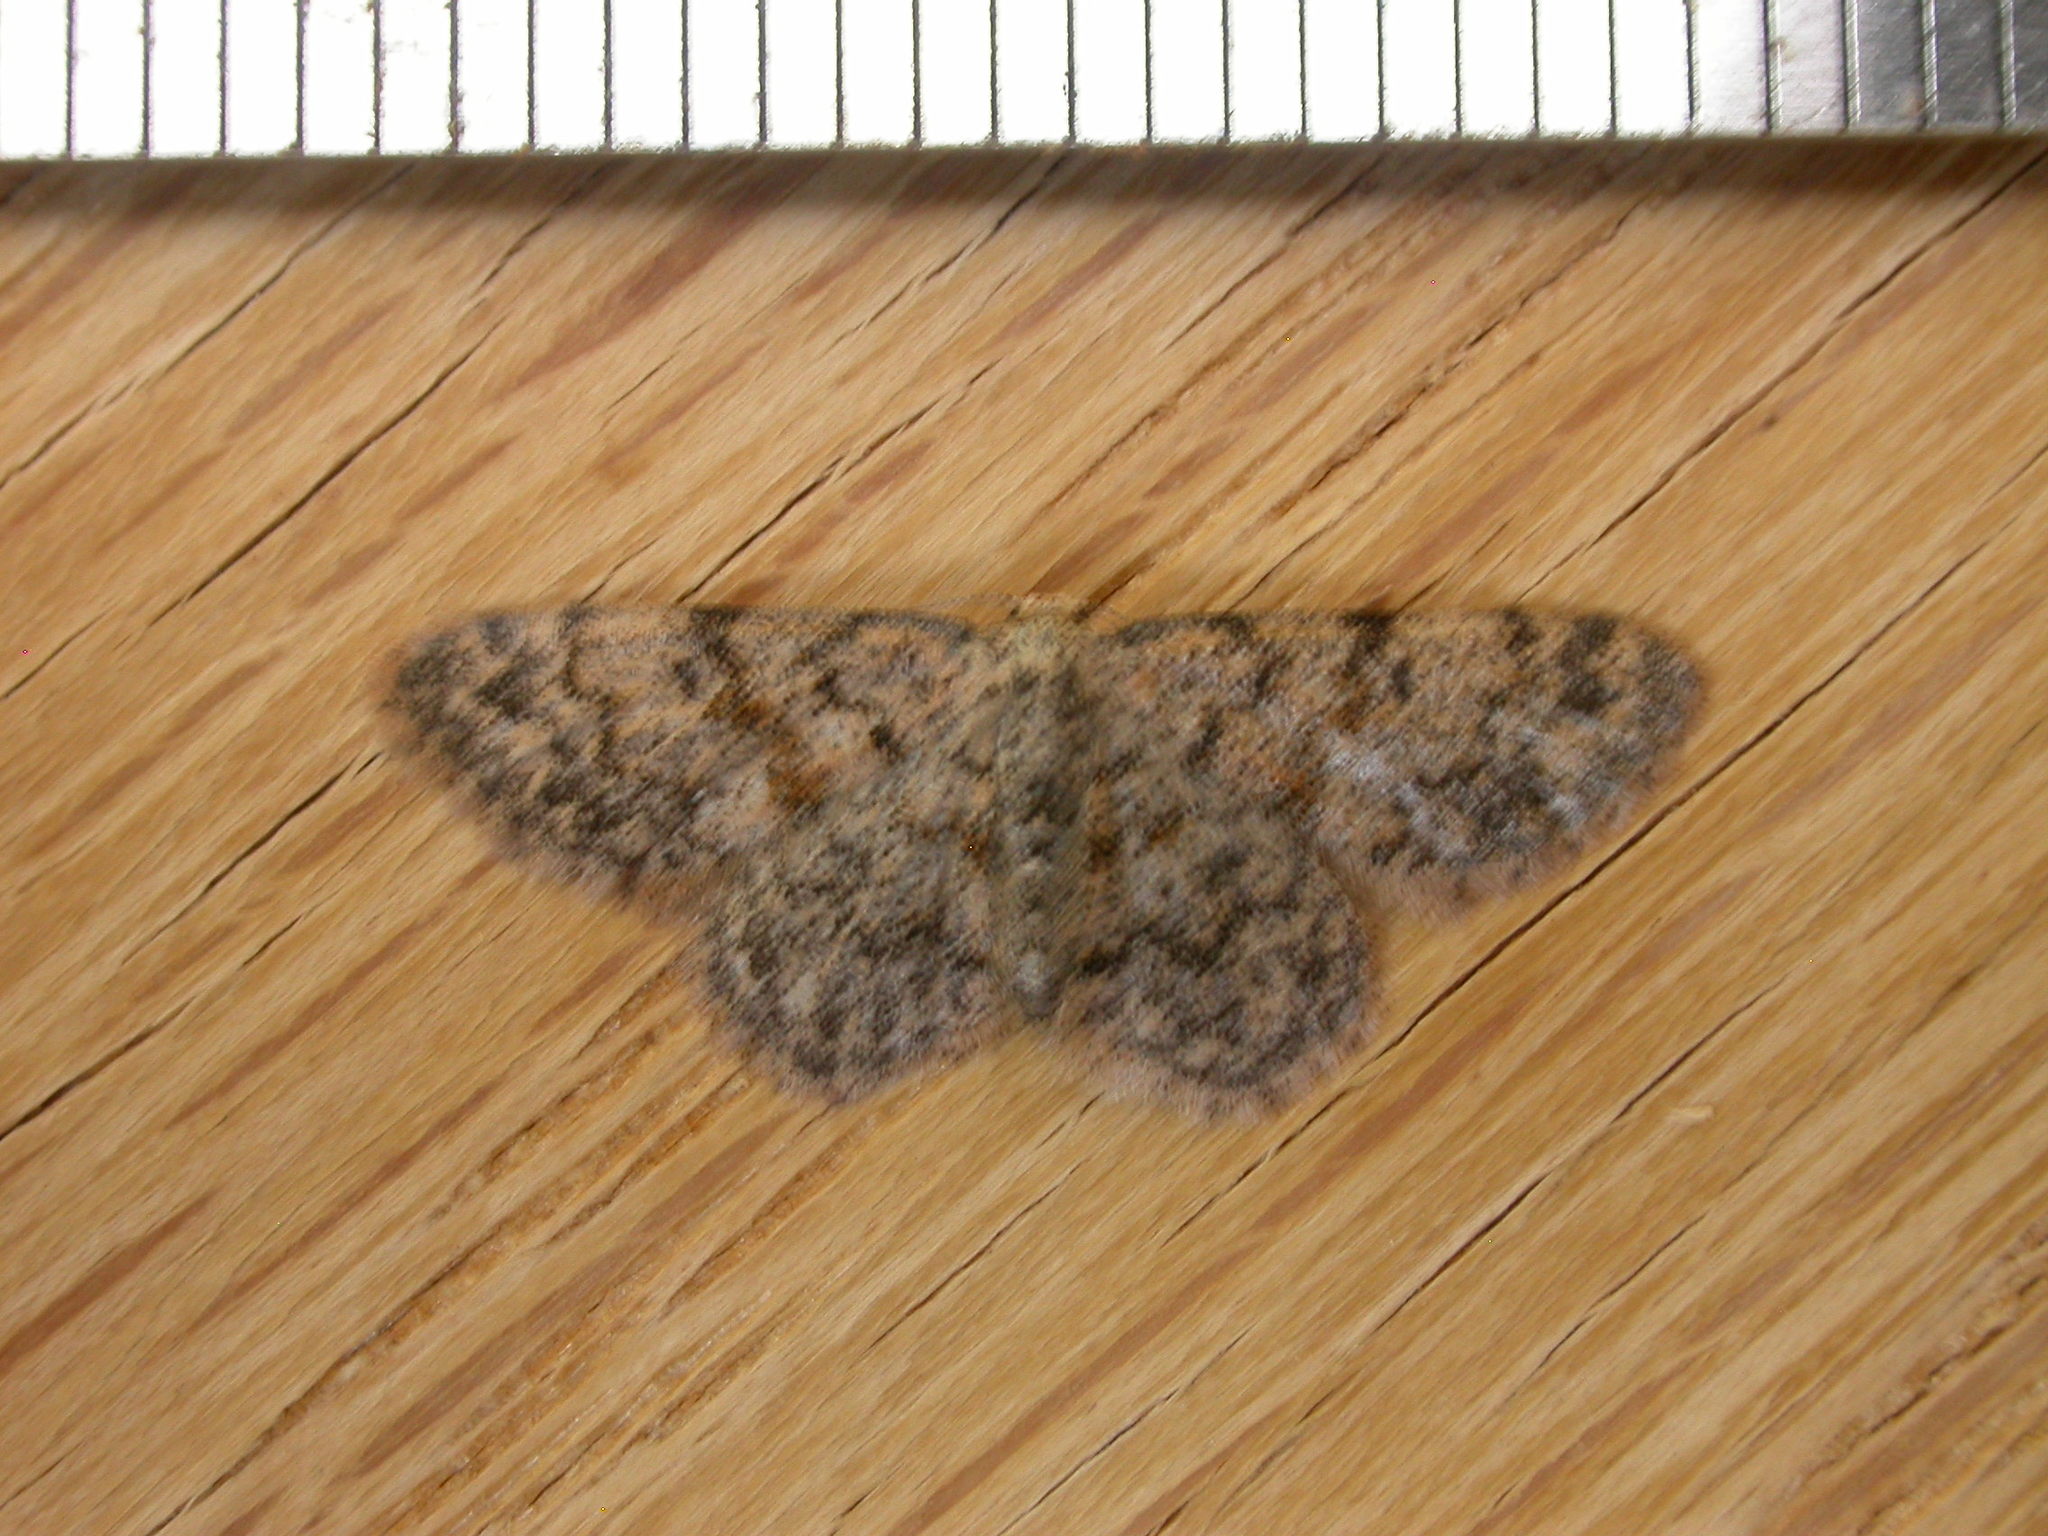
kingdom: Animalia
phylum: Arthropoda
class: Insecta
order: Lepidoptera
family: Geometridae
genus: Idaea
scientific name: Idaea ferrilinea
